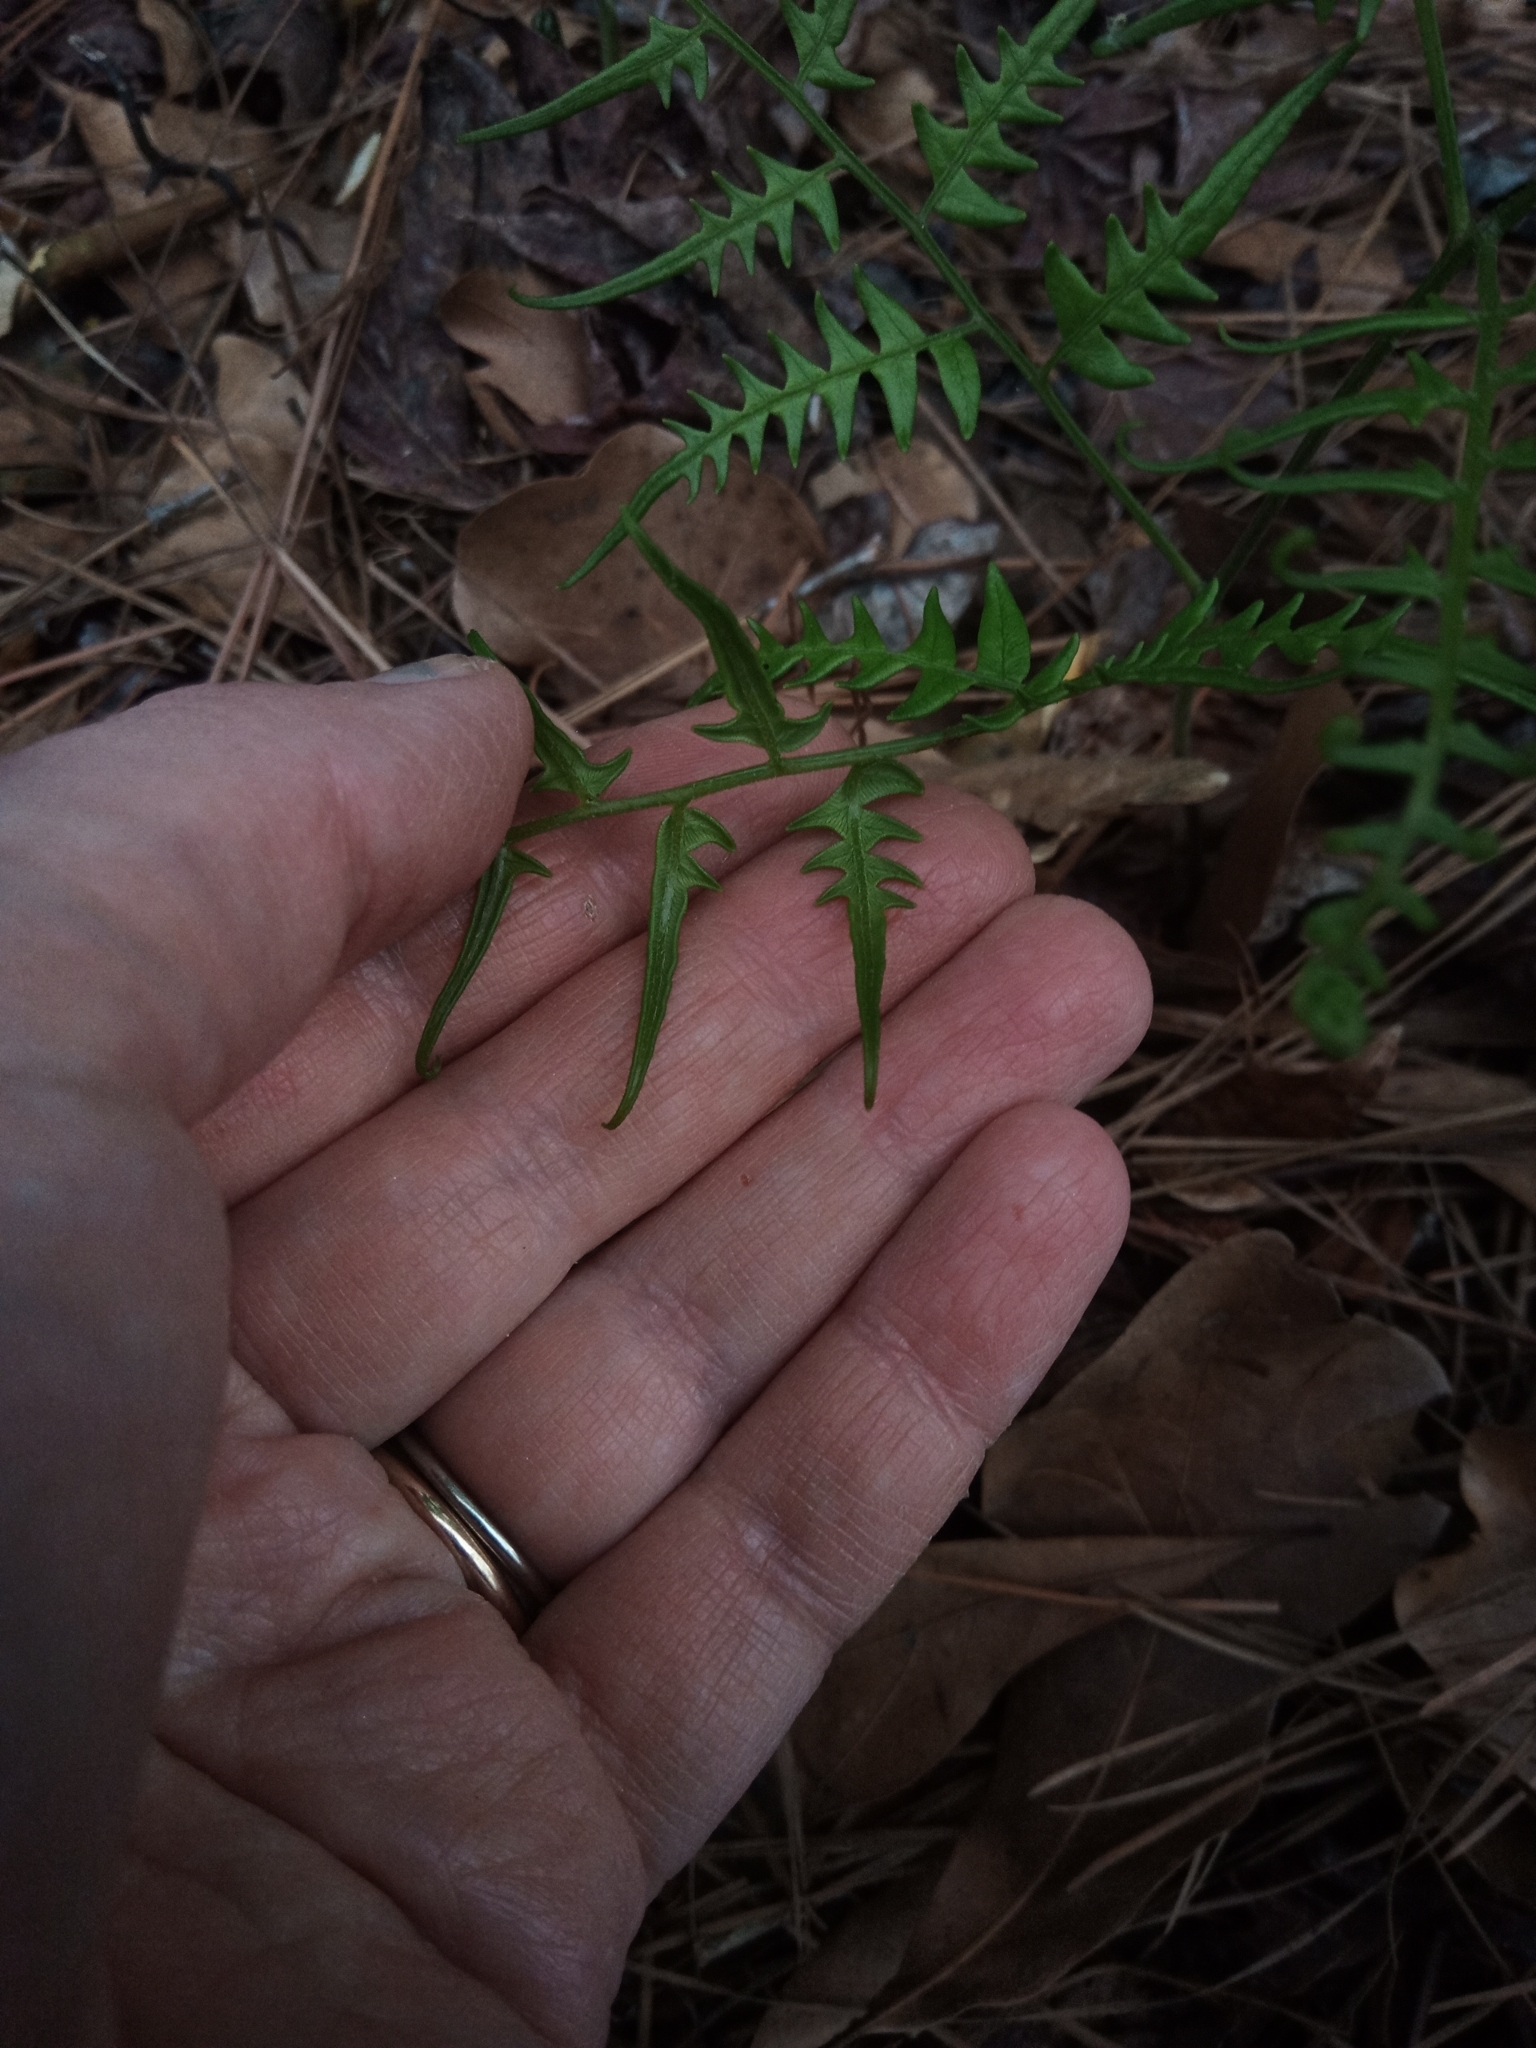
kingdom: Plantae
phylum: Tracheophyta
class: Polypodiopsida
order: Polypodiales
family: Dennstaedtiaceae
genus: Pteridium
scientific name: Pteridium
